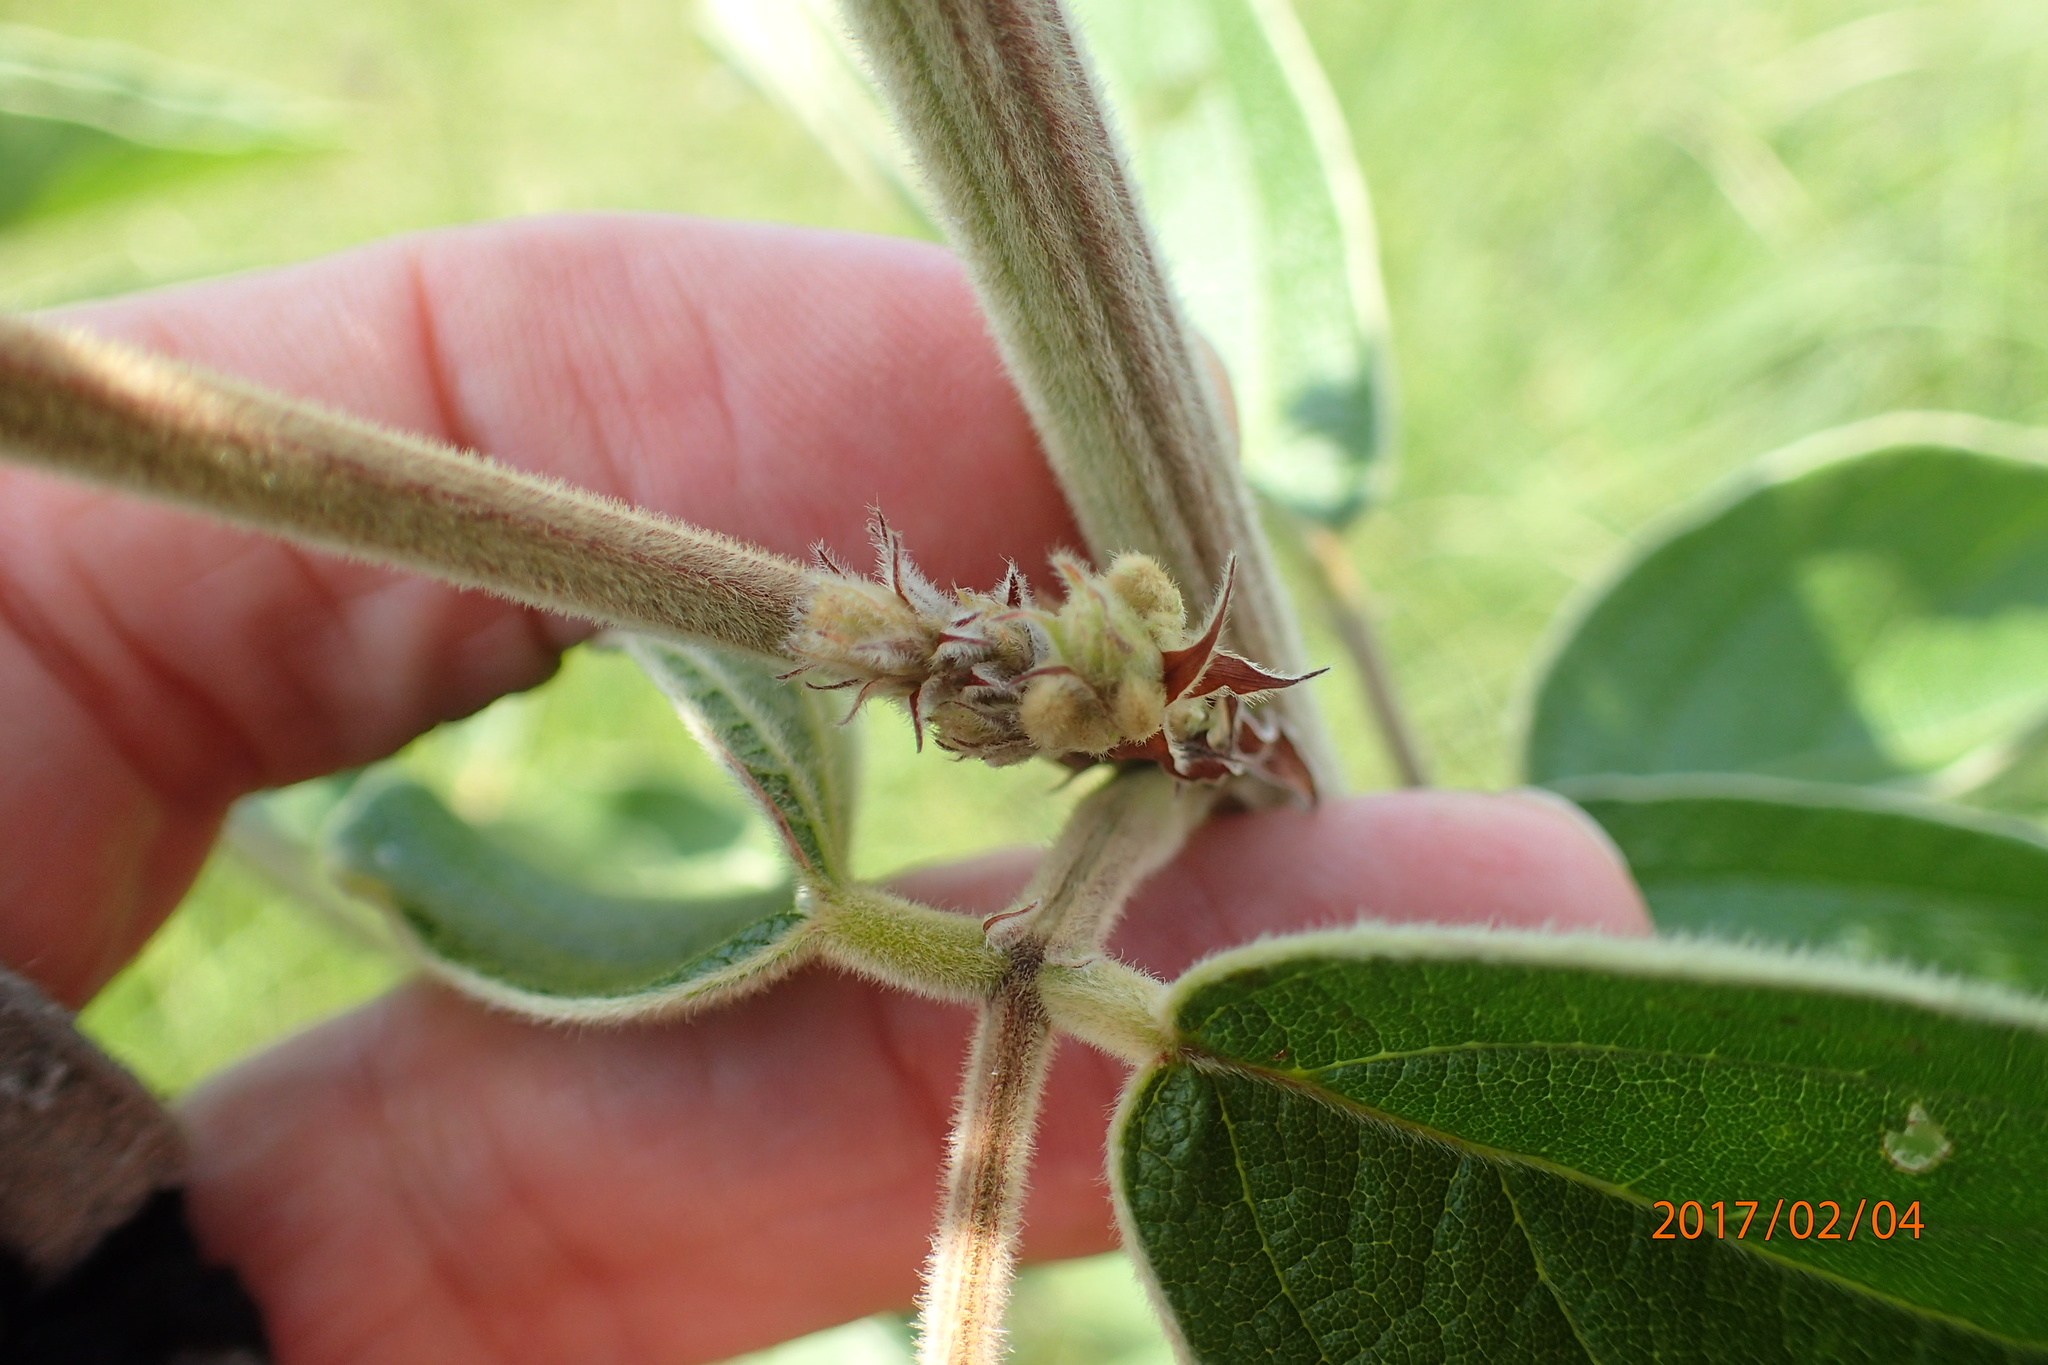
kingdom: Plantae
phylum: Tracheophyta
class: Magnoliopsida
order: Fabales
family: Fabaceae
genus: Pseudarthria
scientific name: Pseudarthria hookeri
